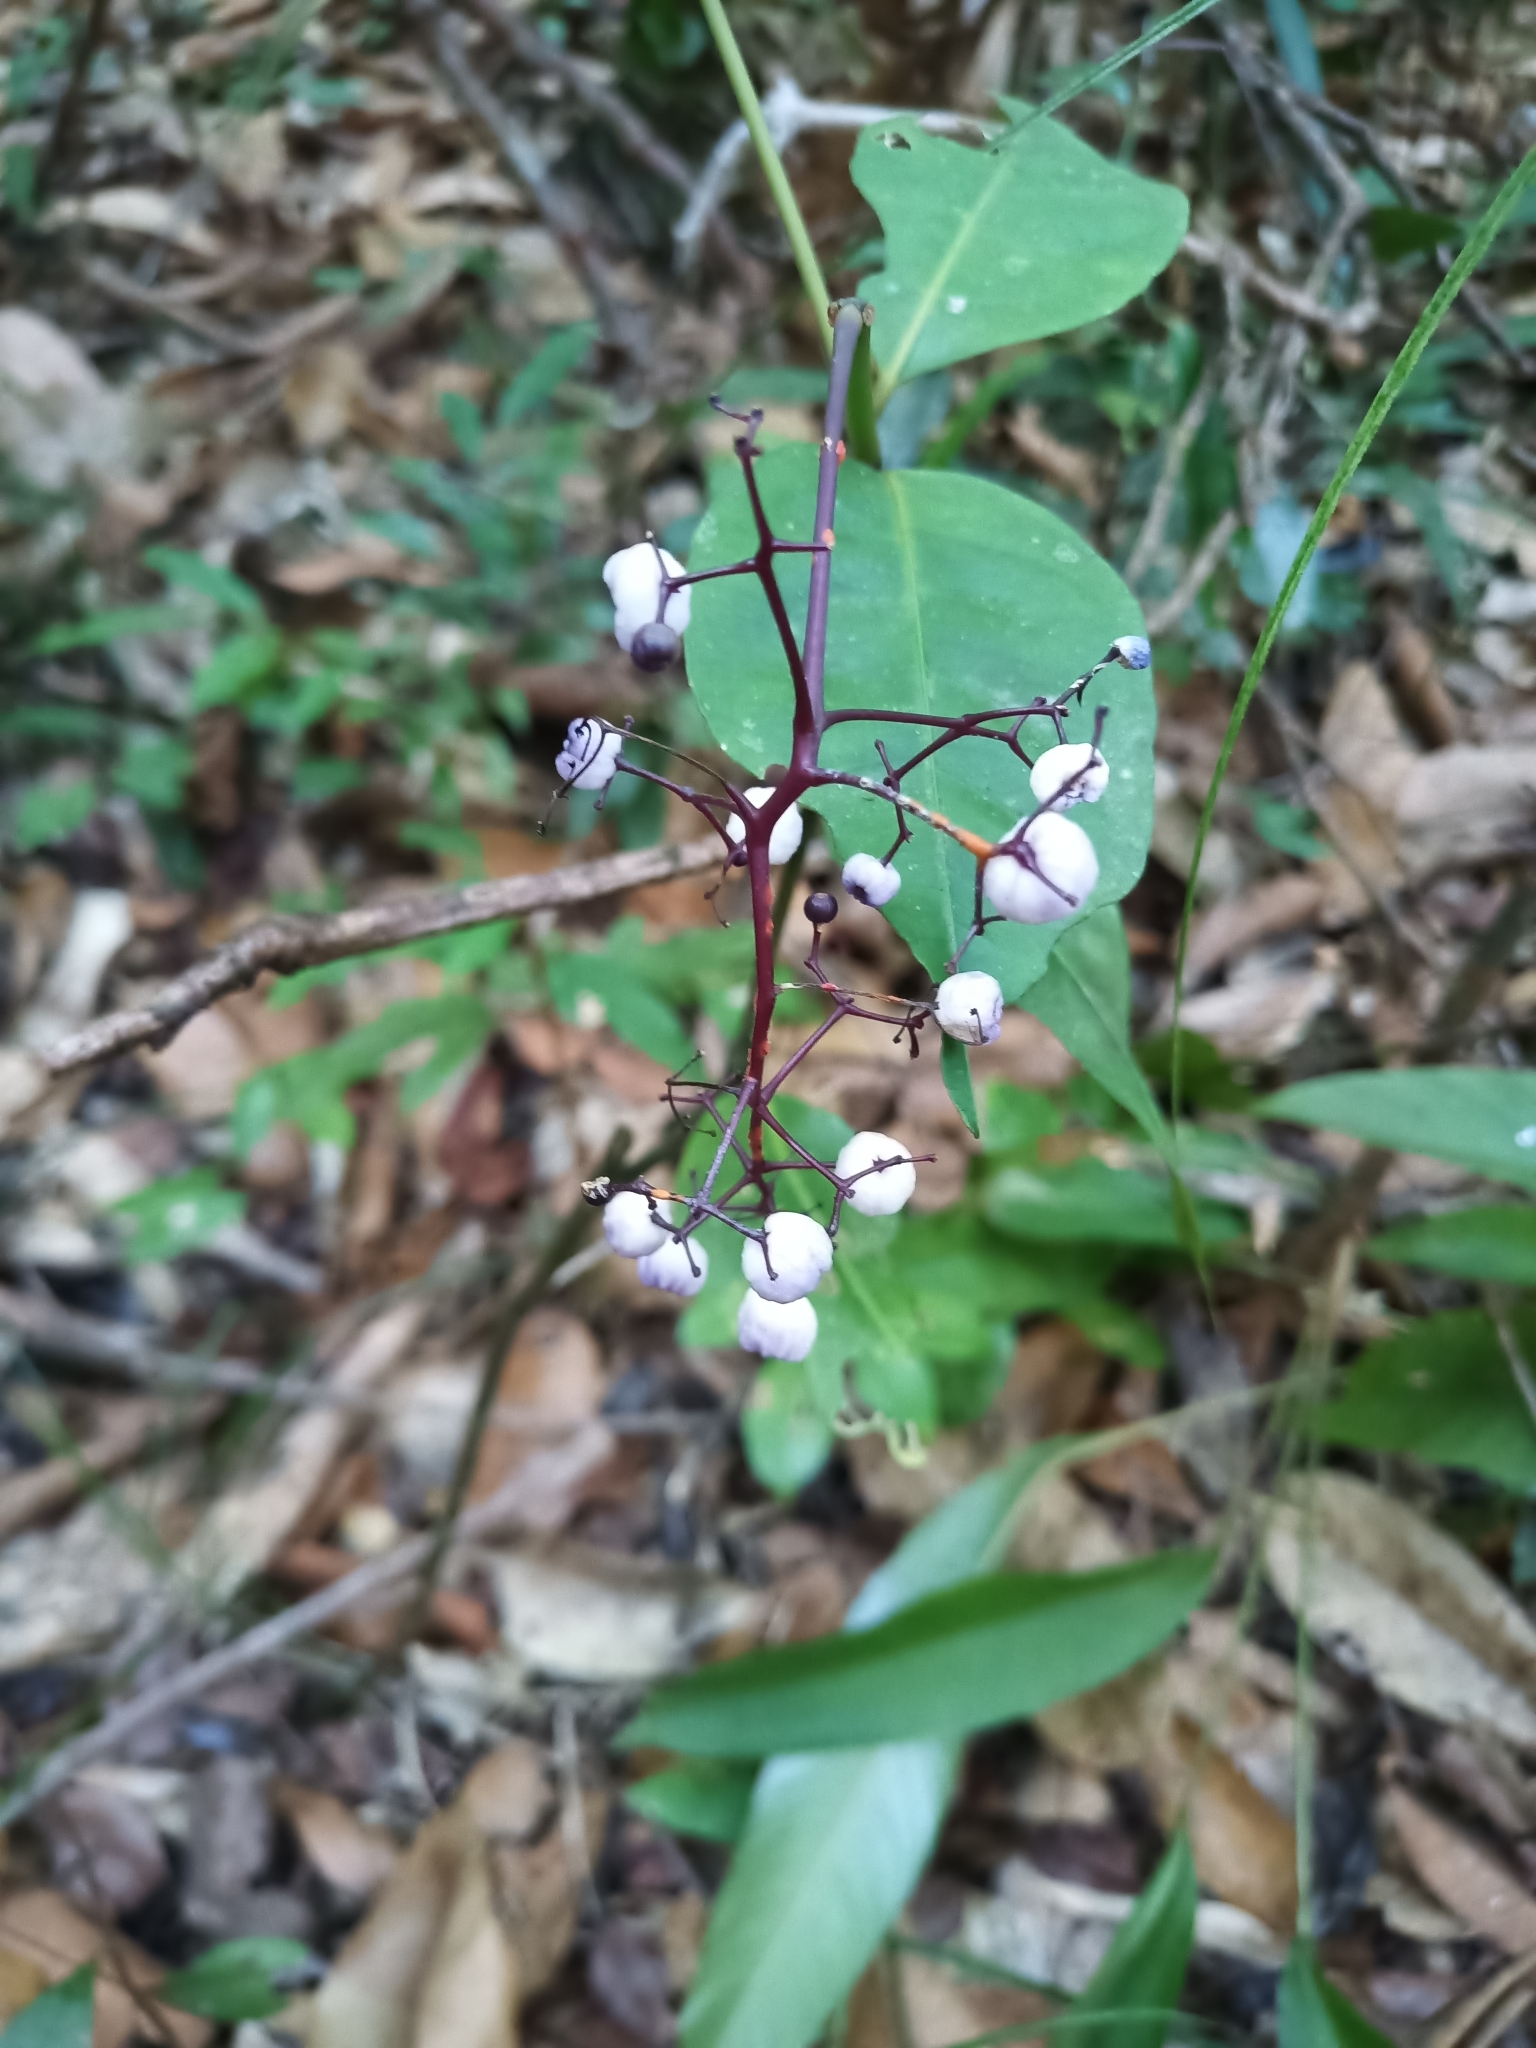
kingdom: Plantae
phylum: Tracheophyta
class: Magnoliopsida
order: Gentianales
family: Rubiaceae
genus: Palicourea
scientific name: Palicourea deflexa
